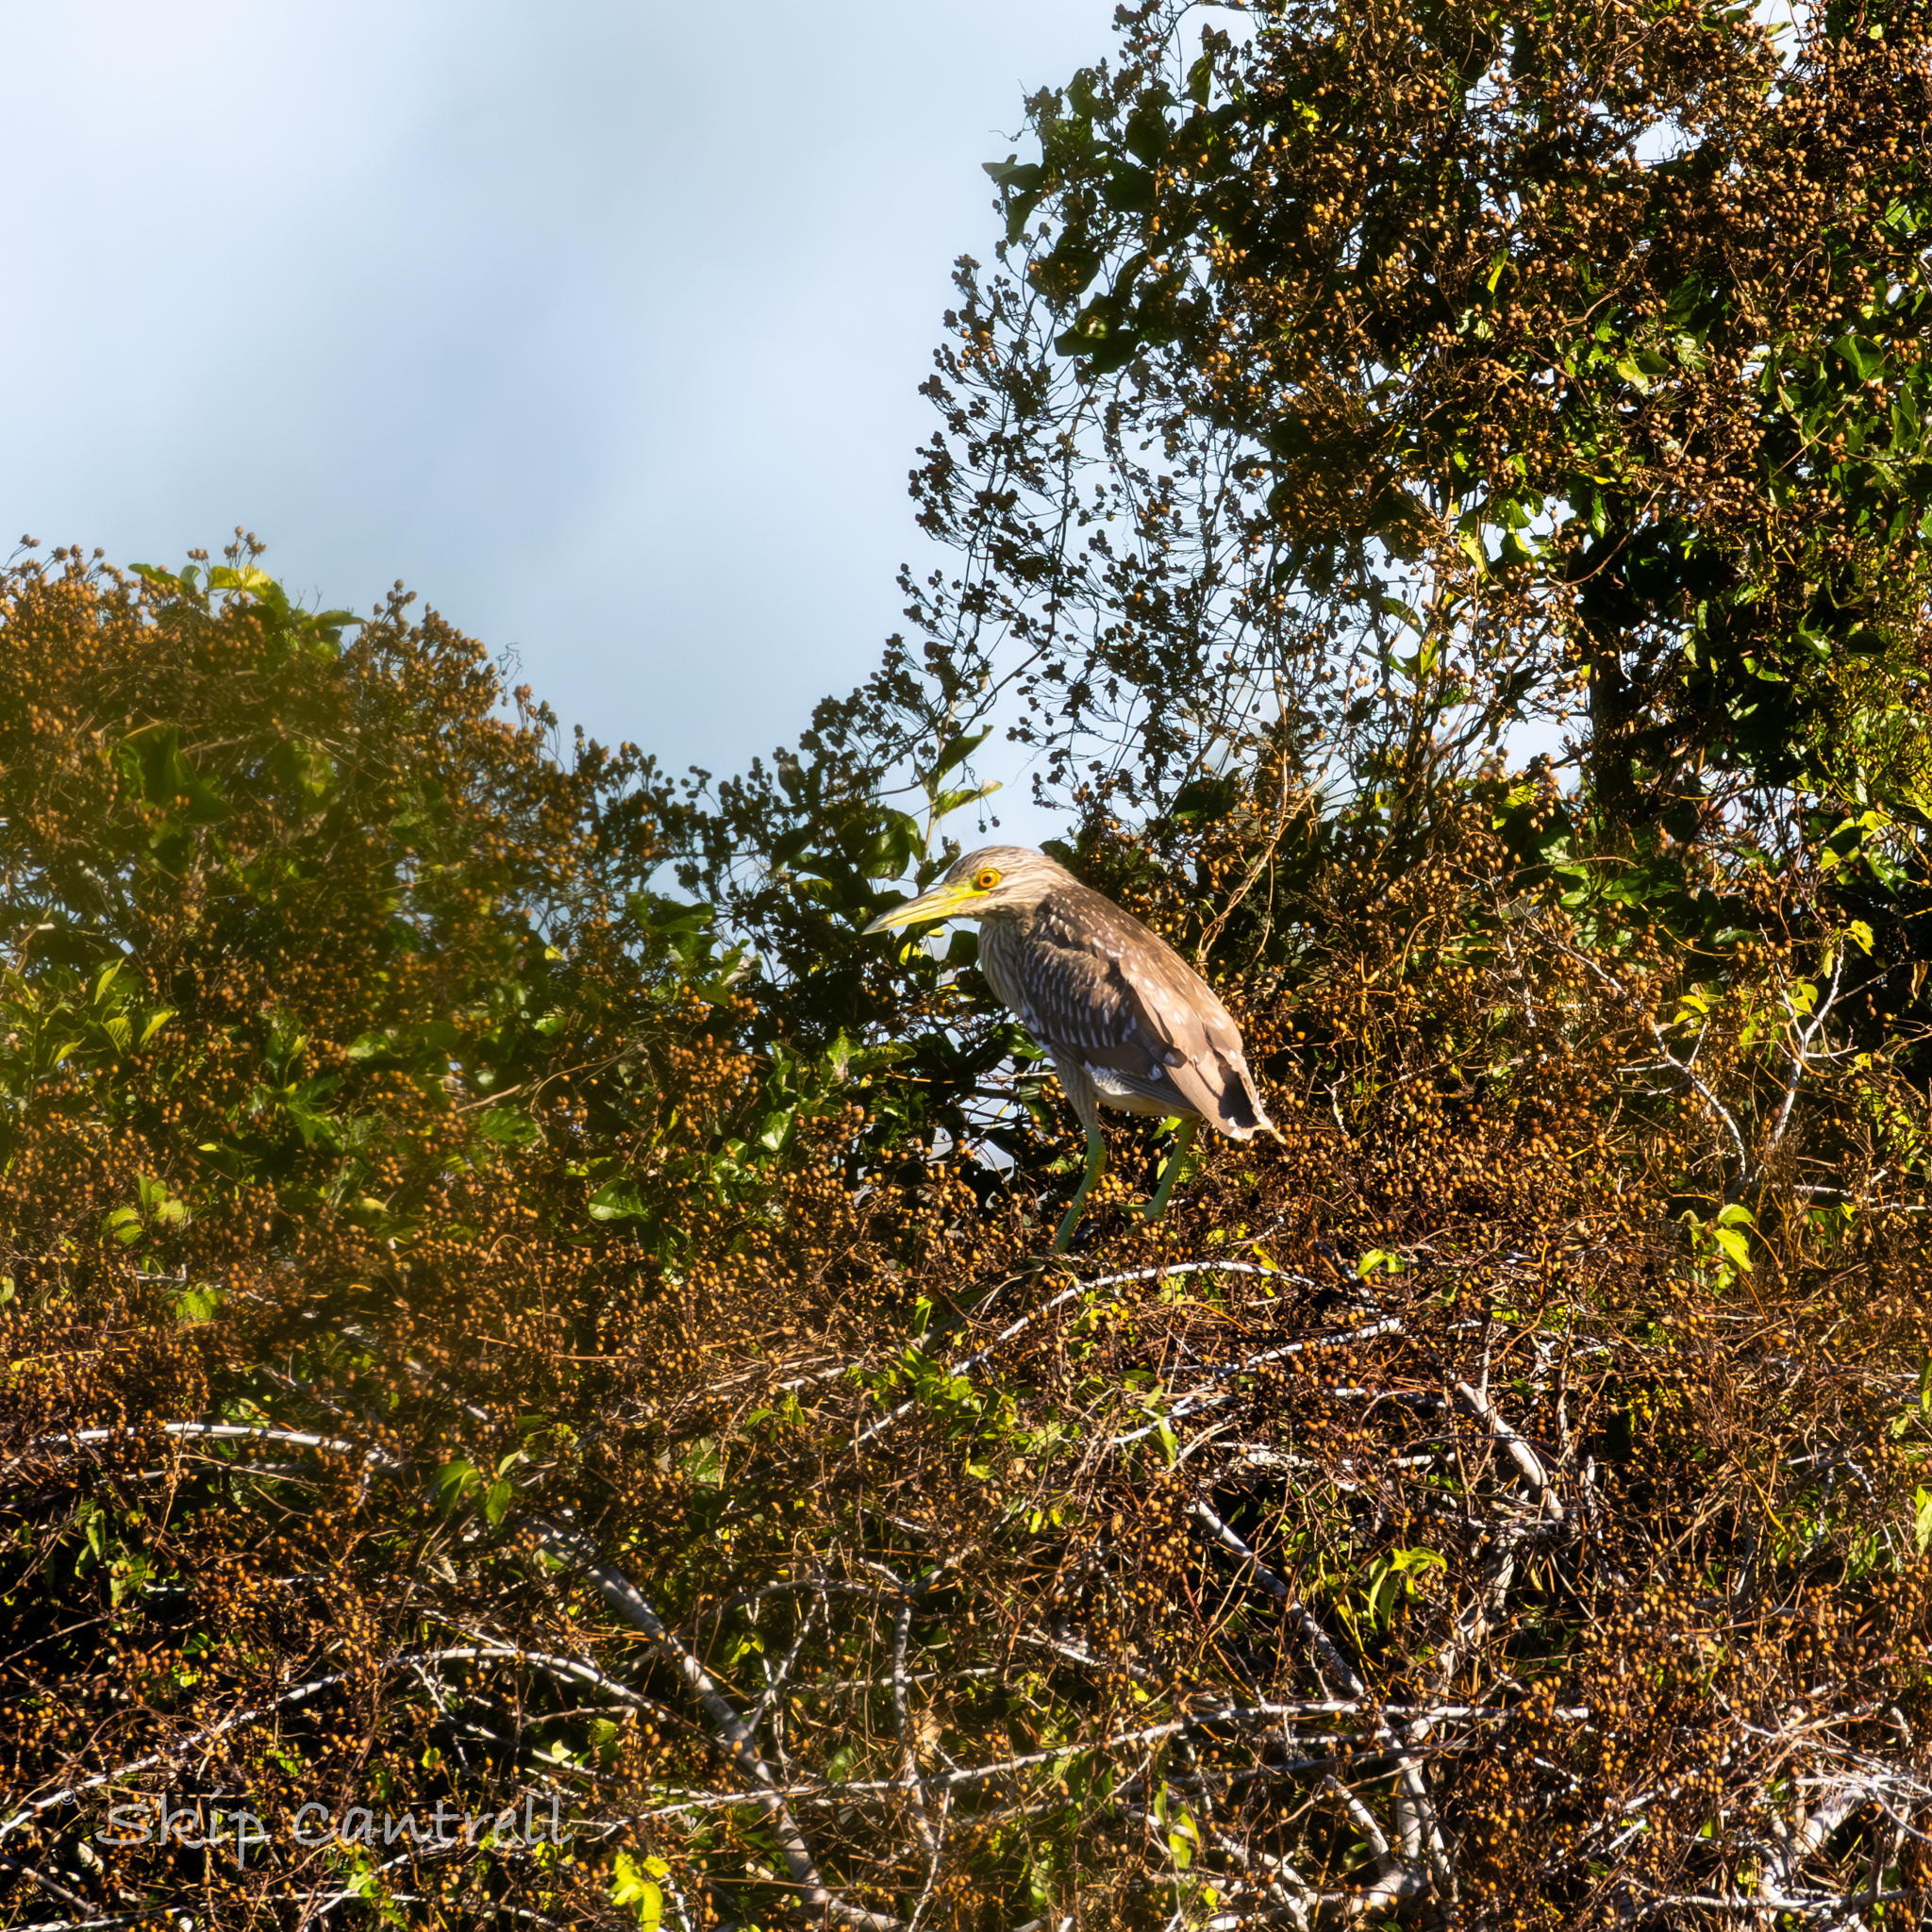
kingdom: Animalia
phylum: Chordata
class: Aves
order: Pelecaniformes
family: Ardeidae
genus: Nycticorax
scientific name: Nycticorax nycticorax
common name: Black-crowned night heron
